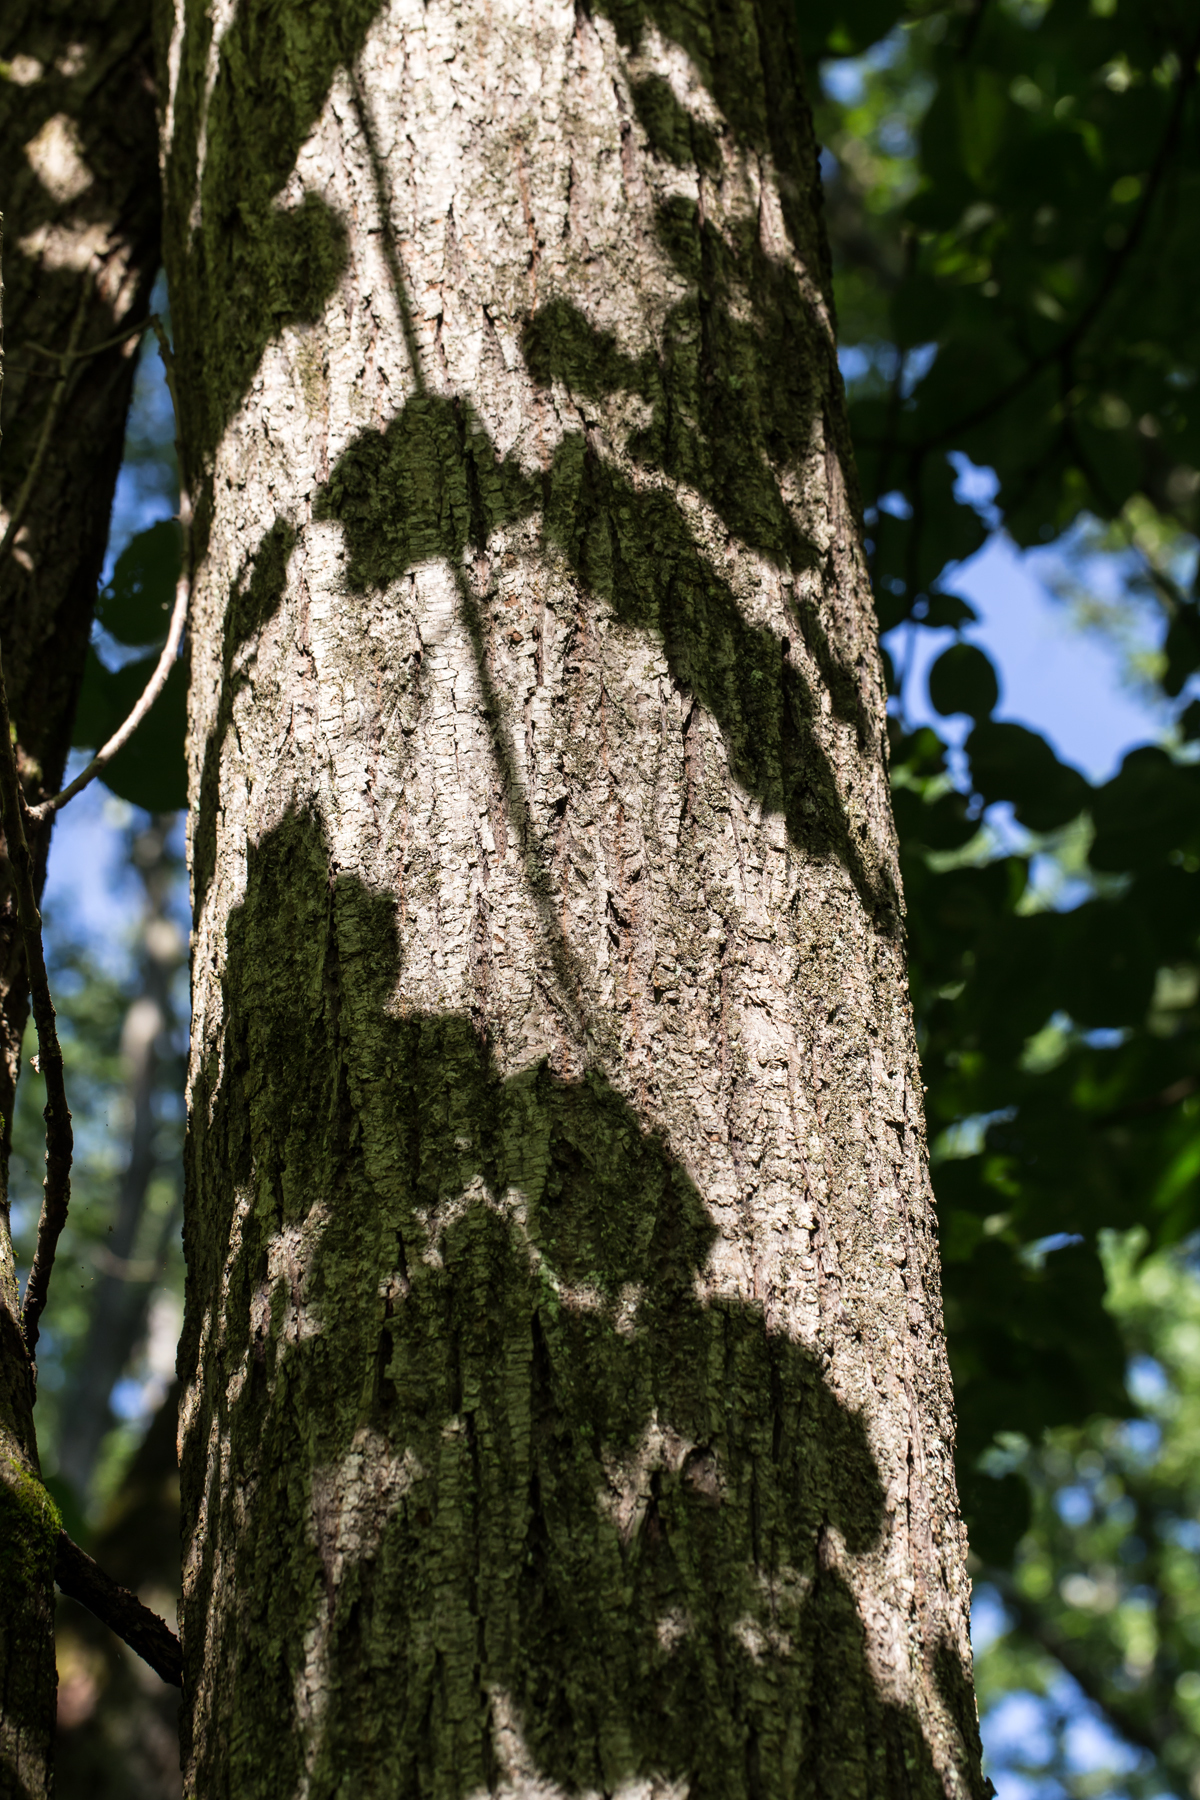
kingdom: Plantae
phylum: Tracheophyta
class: Magnoliopsida
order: Malvales
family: Malvaceae
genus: Tilia
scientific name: Tilia americana
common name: Basswood
